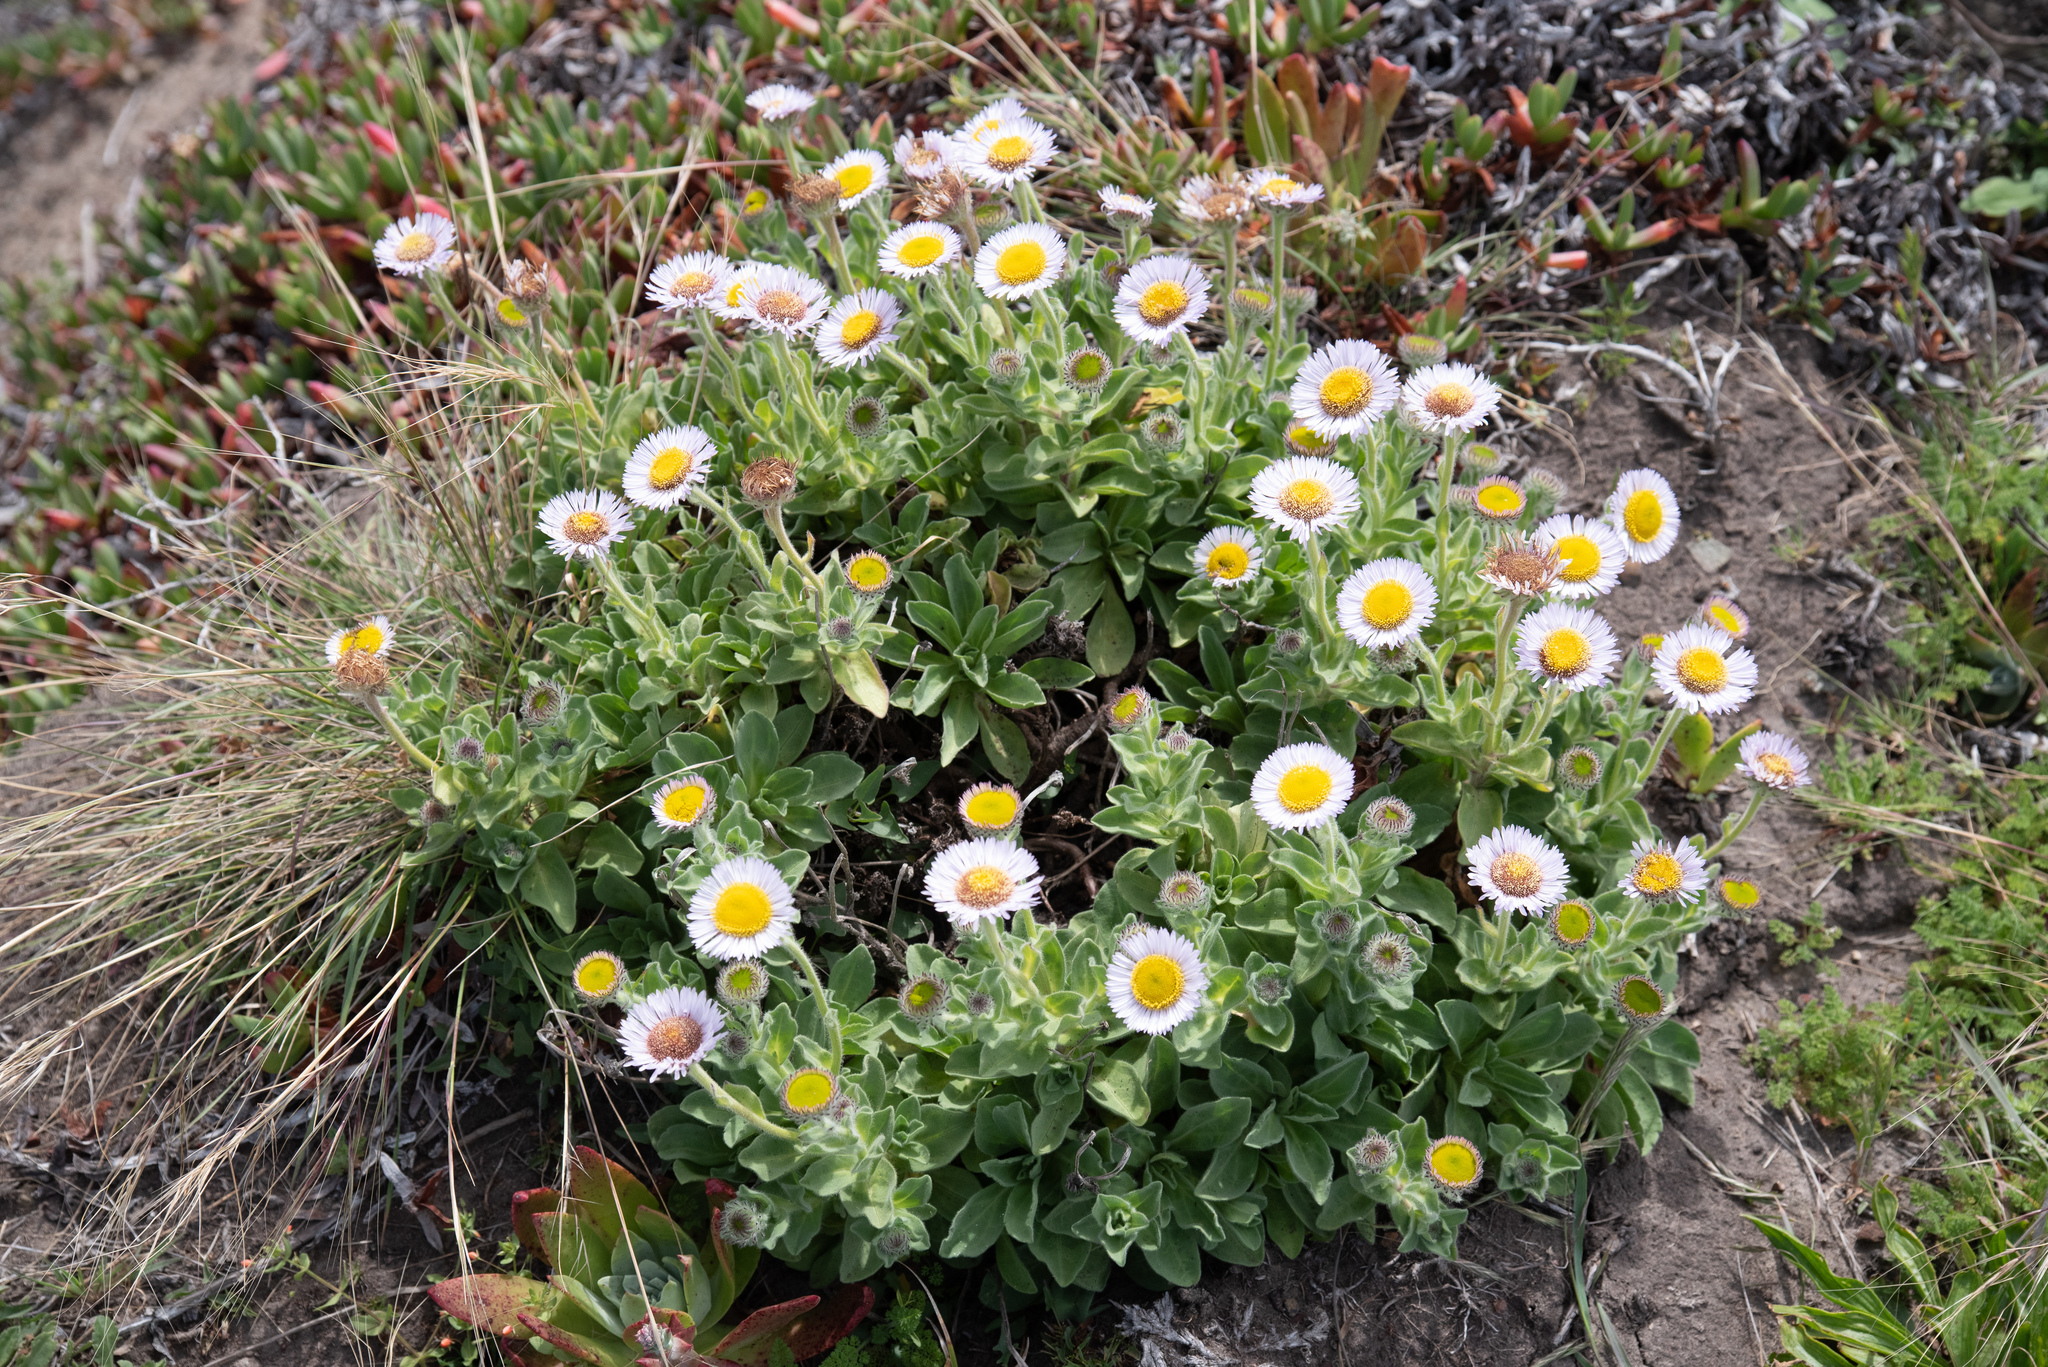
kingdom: Plantae
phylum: Tracheophyta
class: Magnoliopsida
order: Asterales
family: Asteraceae
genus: Erigeron
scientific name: Erigeron glaucus
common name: Seaside daisy
